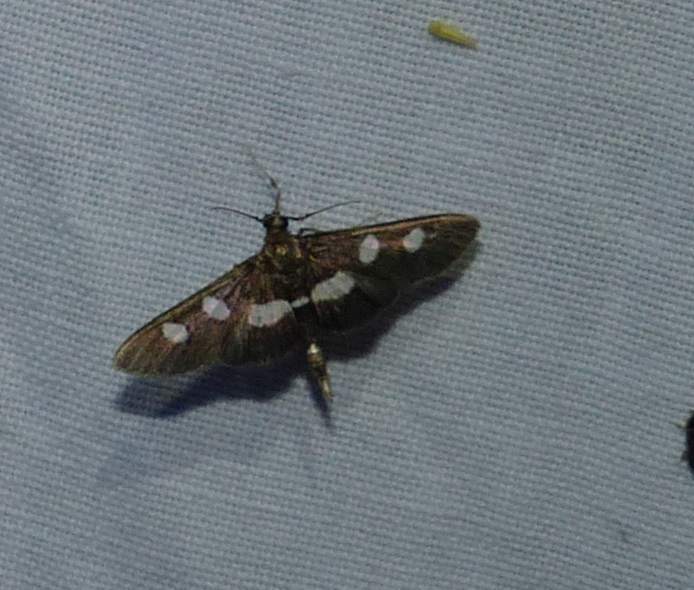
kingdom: Animalia
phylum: Arthropoda
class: Insecta
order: Lepidoptera
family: Crambidae
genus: Desmia
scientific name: Desmia
